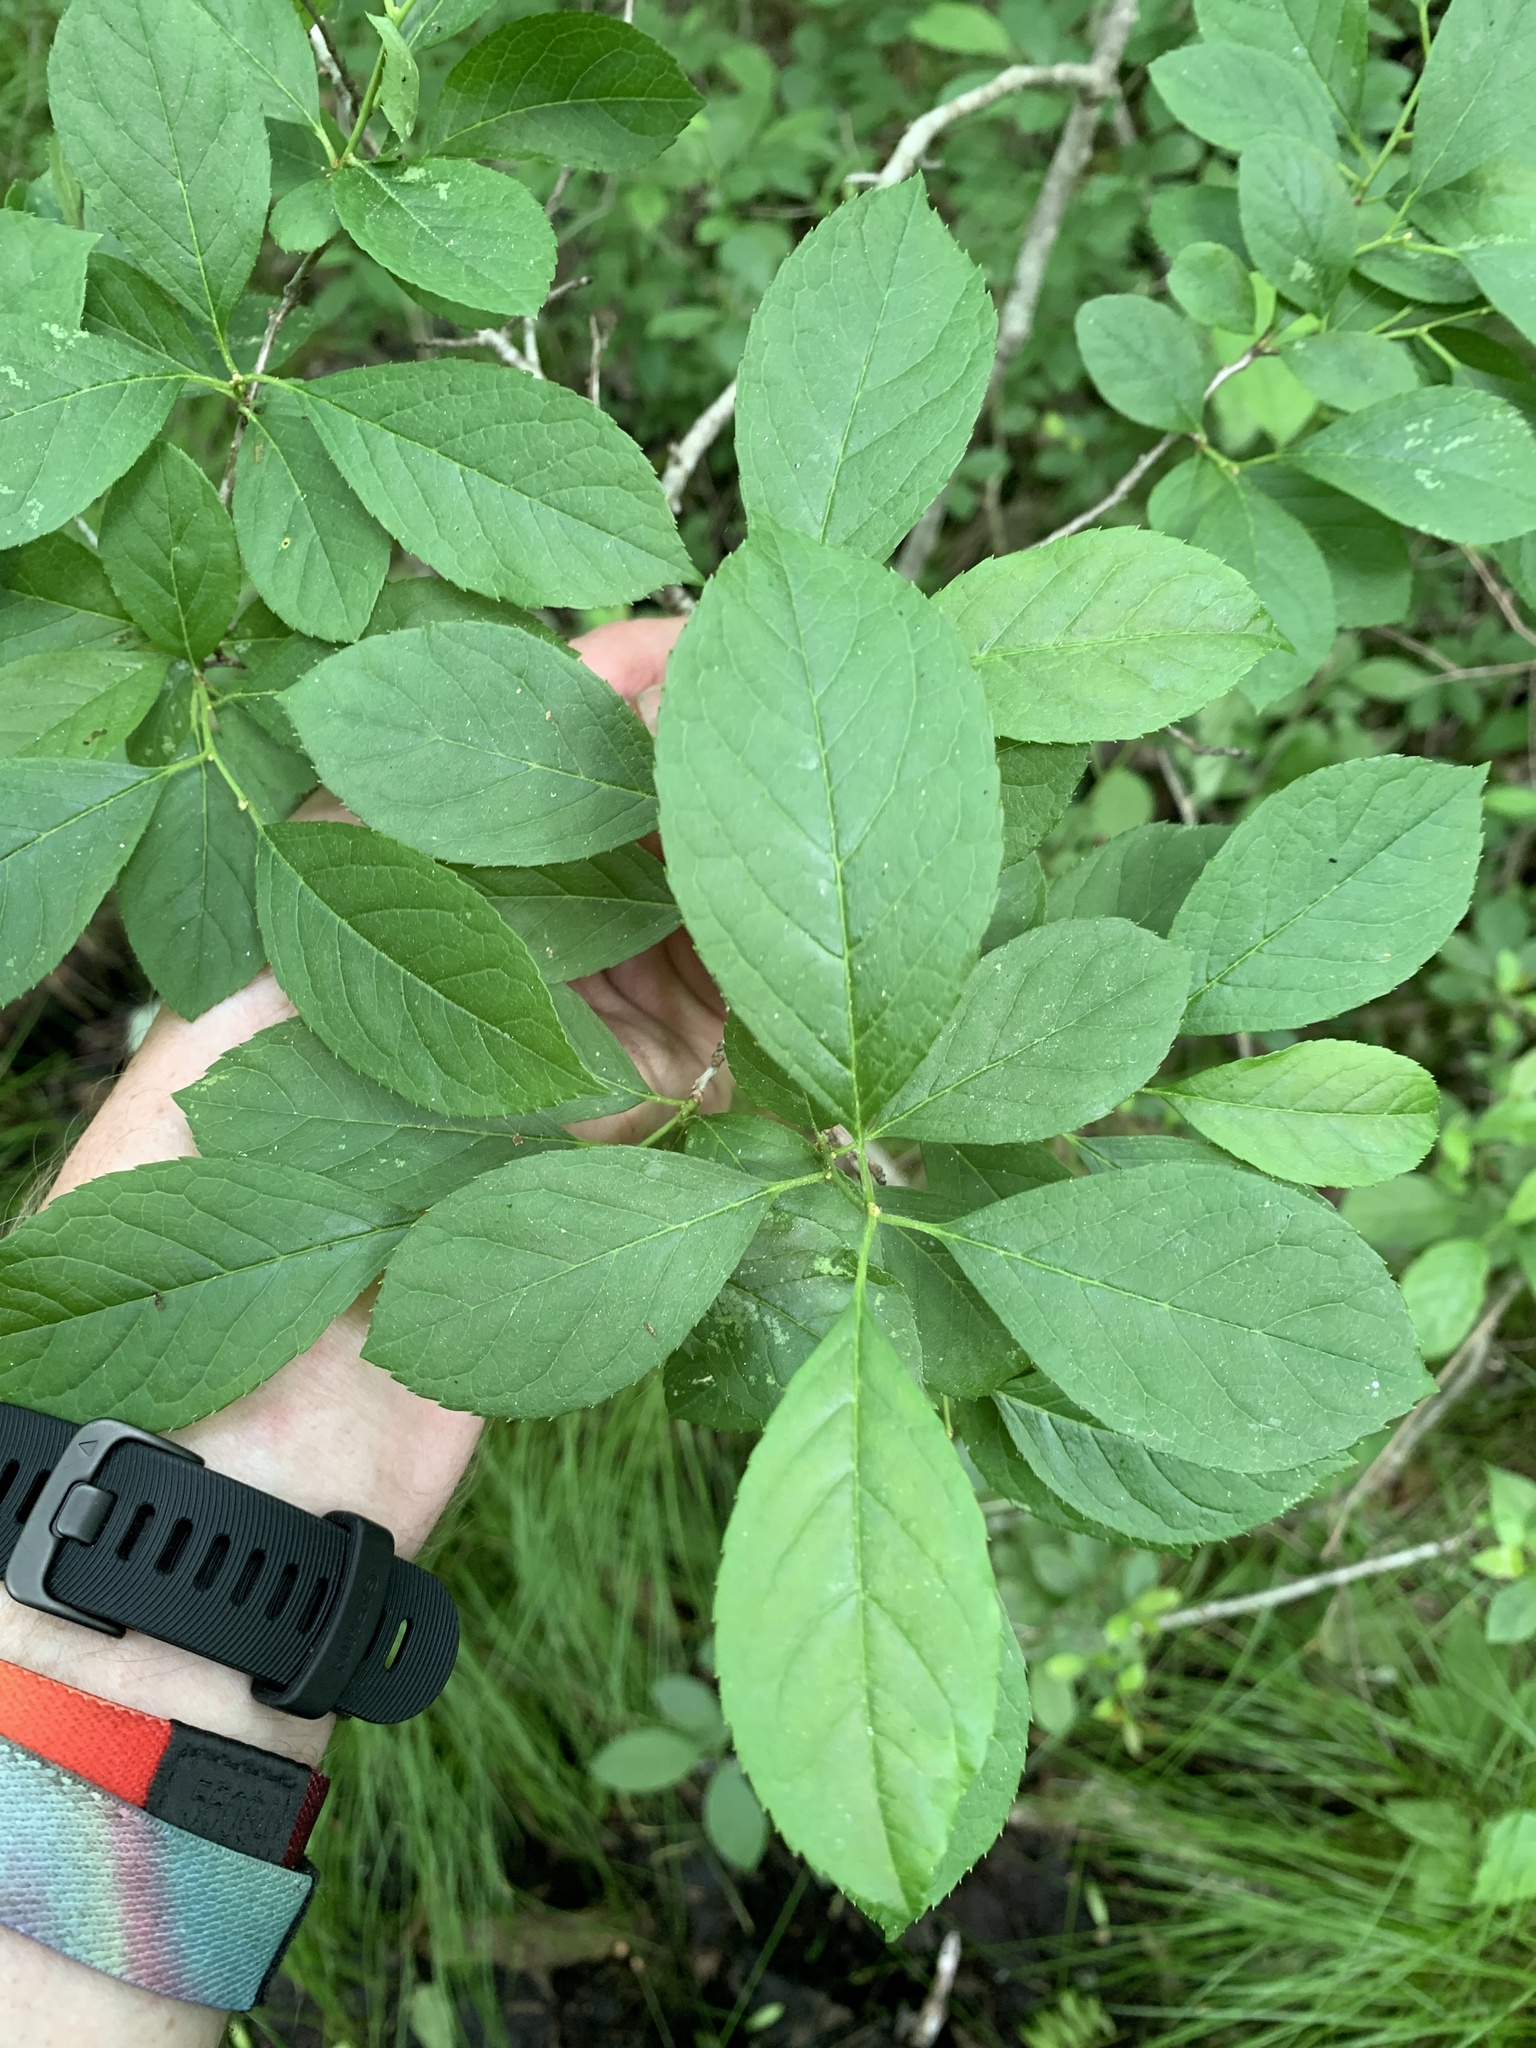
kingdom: Plantae
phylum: Tracheophyta
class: Magnoliopsida
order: Aquifoliales
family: Aquifoliaceae
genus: Ilex
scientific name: Ilex verticillata
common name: Virginia winterberry
